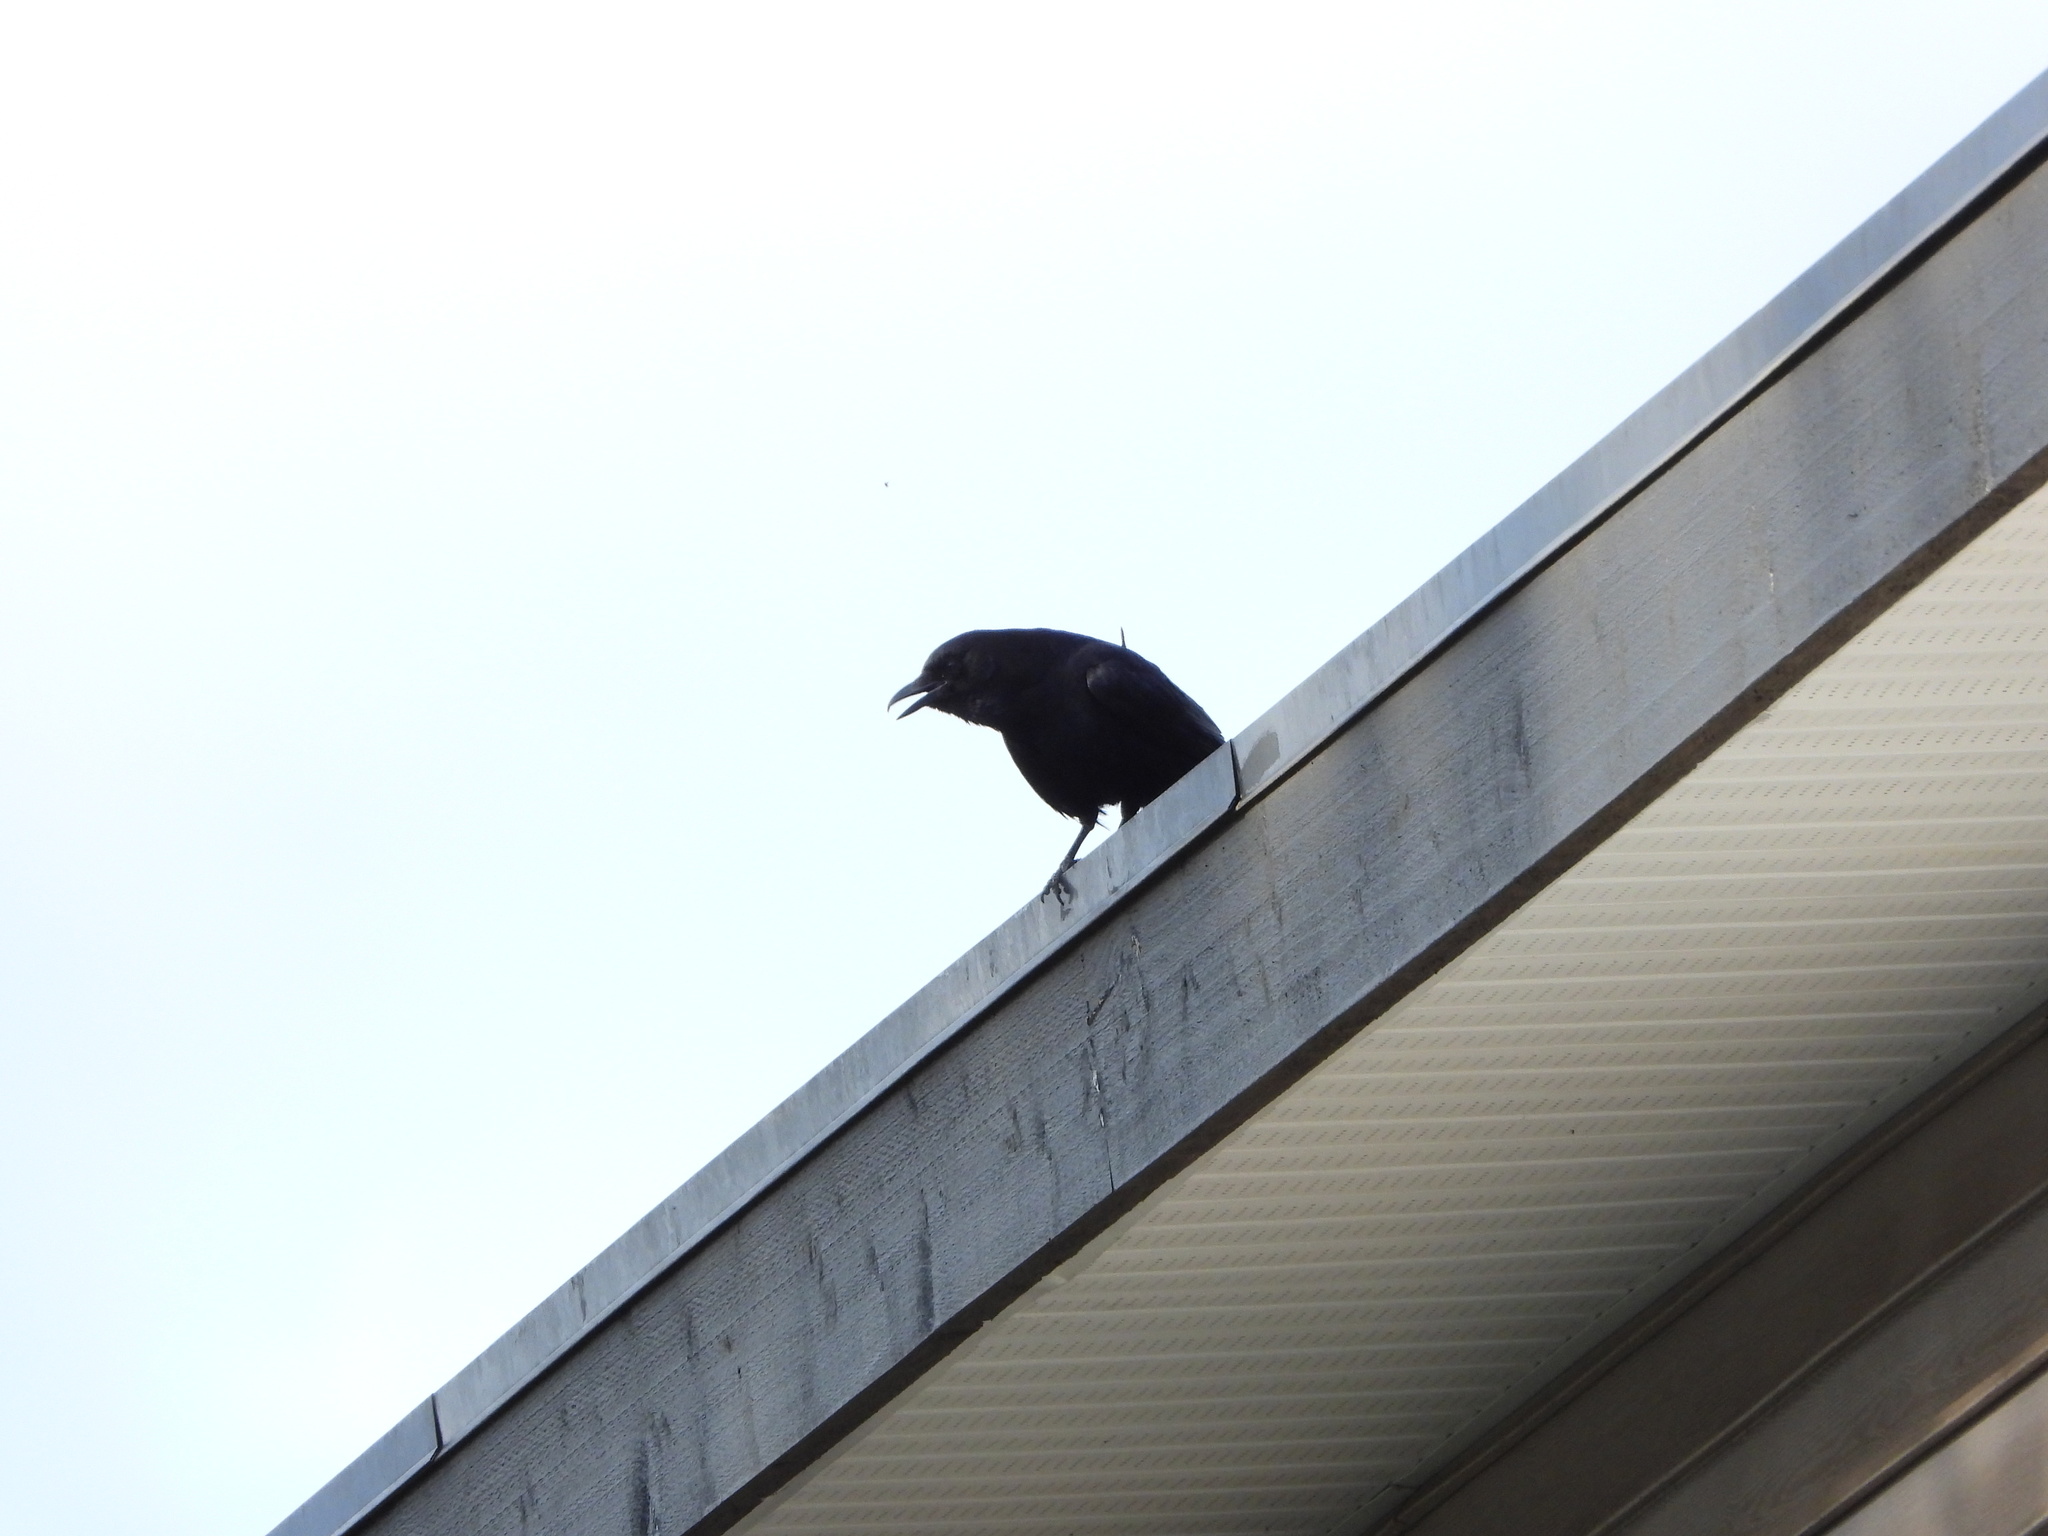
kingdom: Animalia
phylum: Chordata
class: Aves
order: Passeriformes
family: Corvidae
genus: Corvus
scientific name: Corvus brachyrhynchos
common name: American crow
